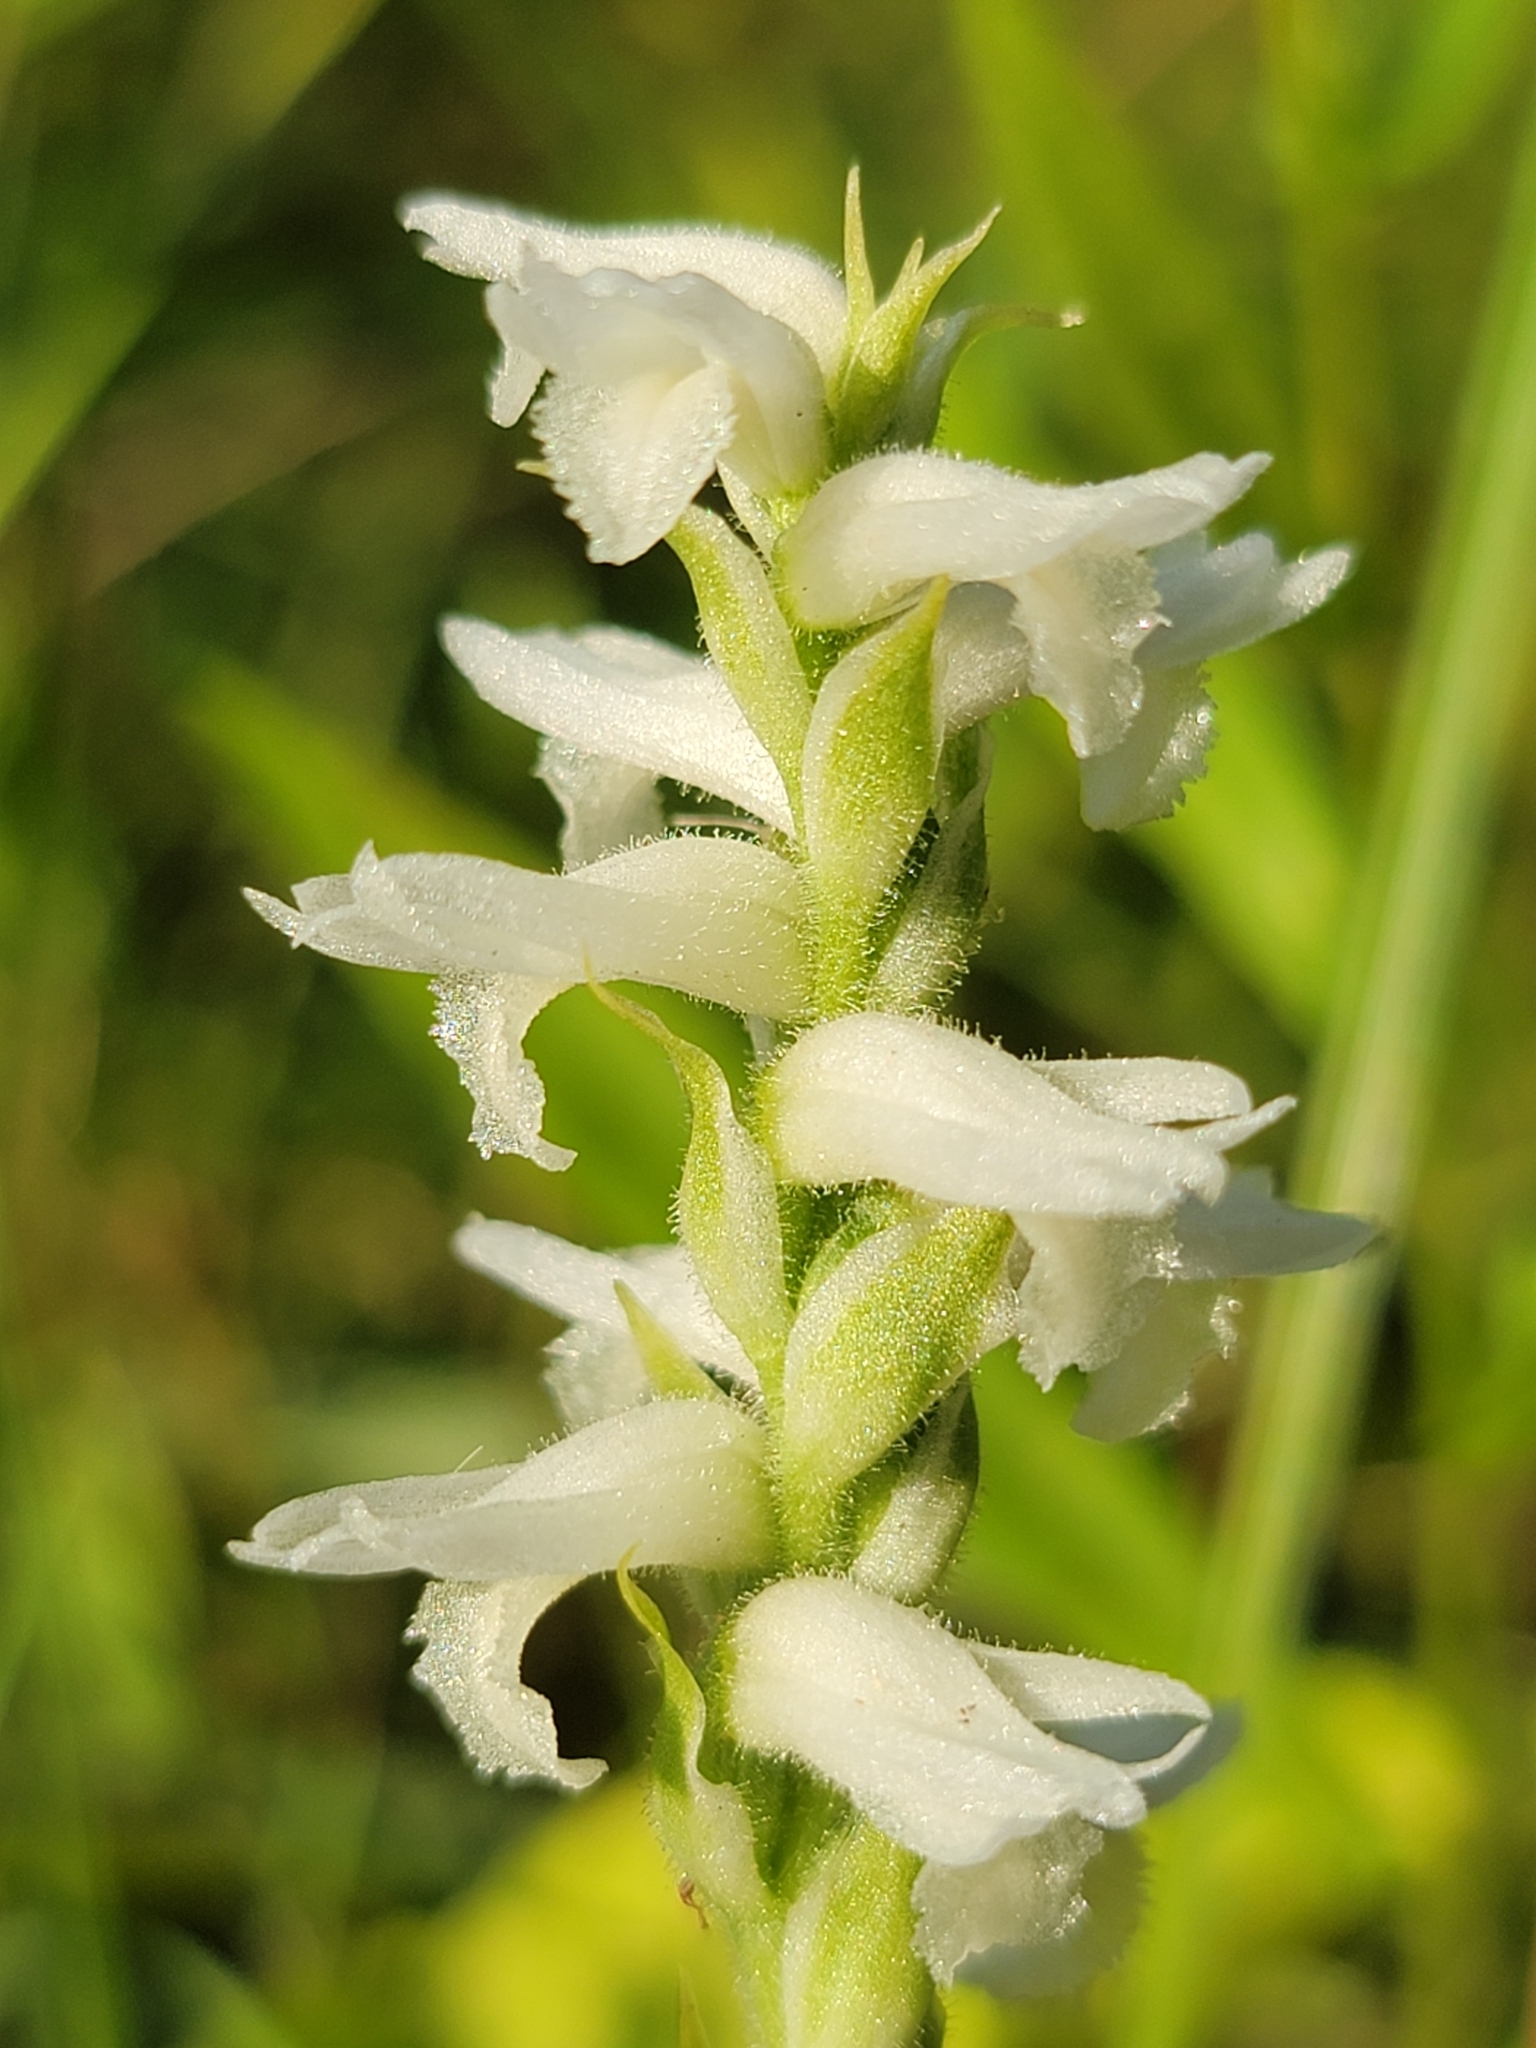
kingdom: Plantae
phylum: Tracheophyta
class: Liliopsida
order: Asparagales
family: Orchidaceae
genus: Spiranthes
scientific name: Spiranthes incurva
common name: Sphinx ladies'-tresses
